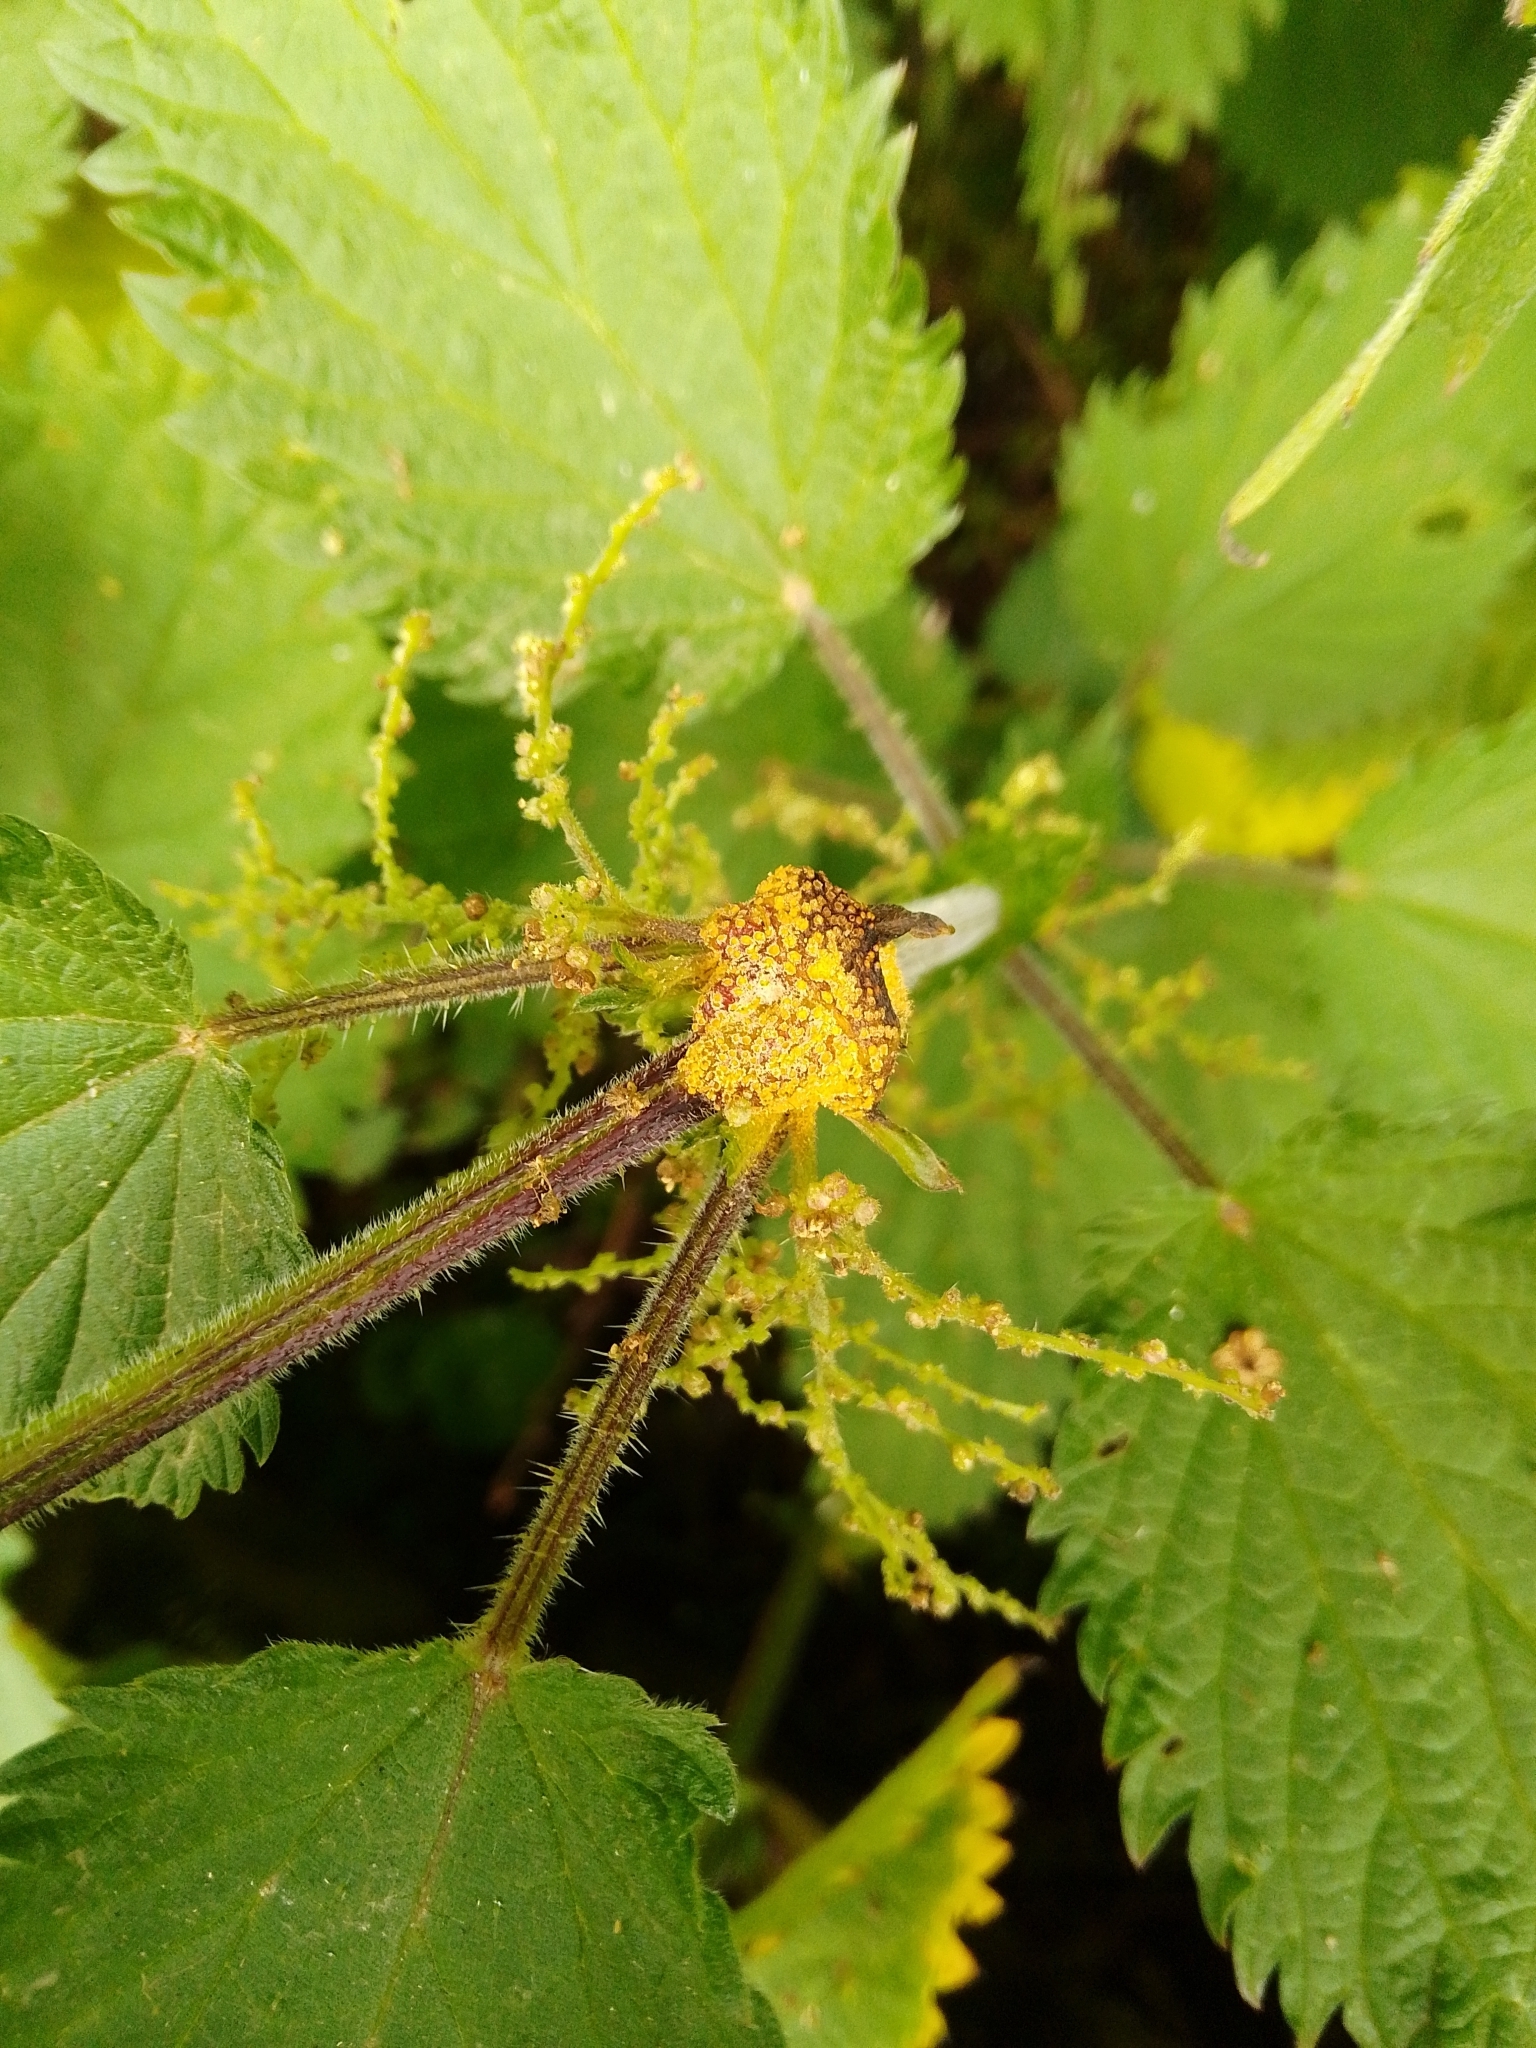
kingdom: Fungi
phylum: Basidiomycota
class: Pucciniomycetes
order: Pucciniales
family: Pucciniaceae
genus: Puccinia
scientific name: Puccinia urticata
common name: Nettle clustercup rust fungus
